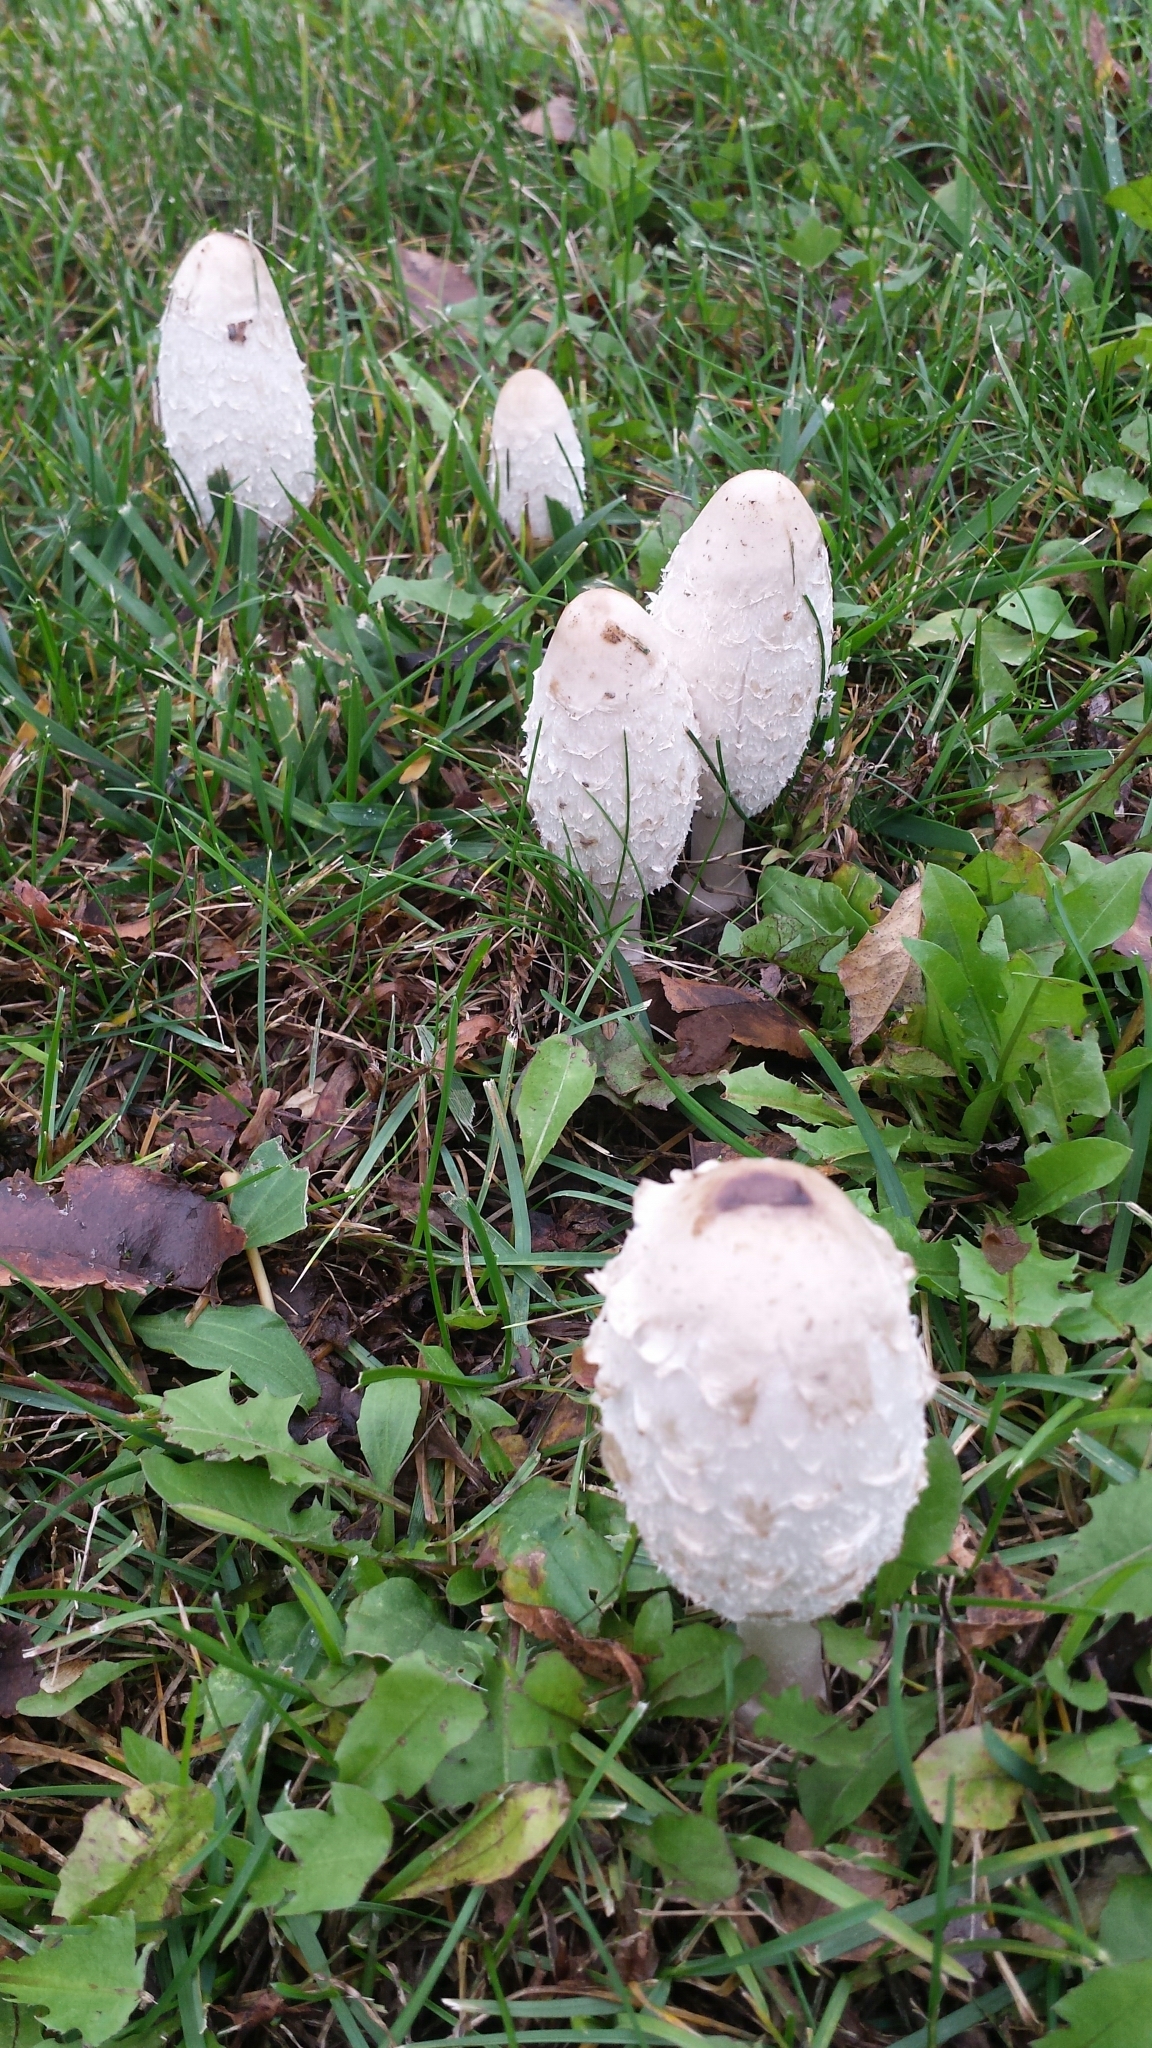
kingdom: Fungi
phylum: Basidiomycota
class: Agaricomycetes
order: Agaricales
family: Agaricaceae
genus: Coprinus
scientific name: Coprinus comatus
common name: Lawyer's wig
